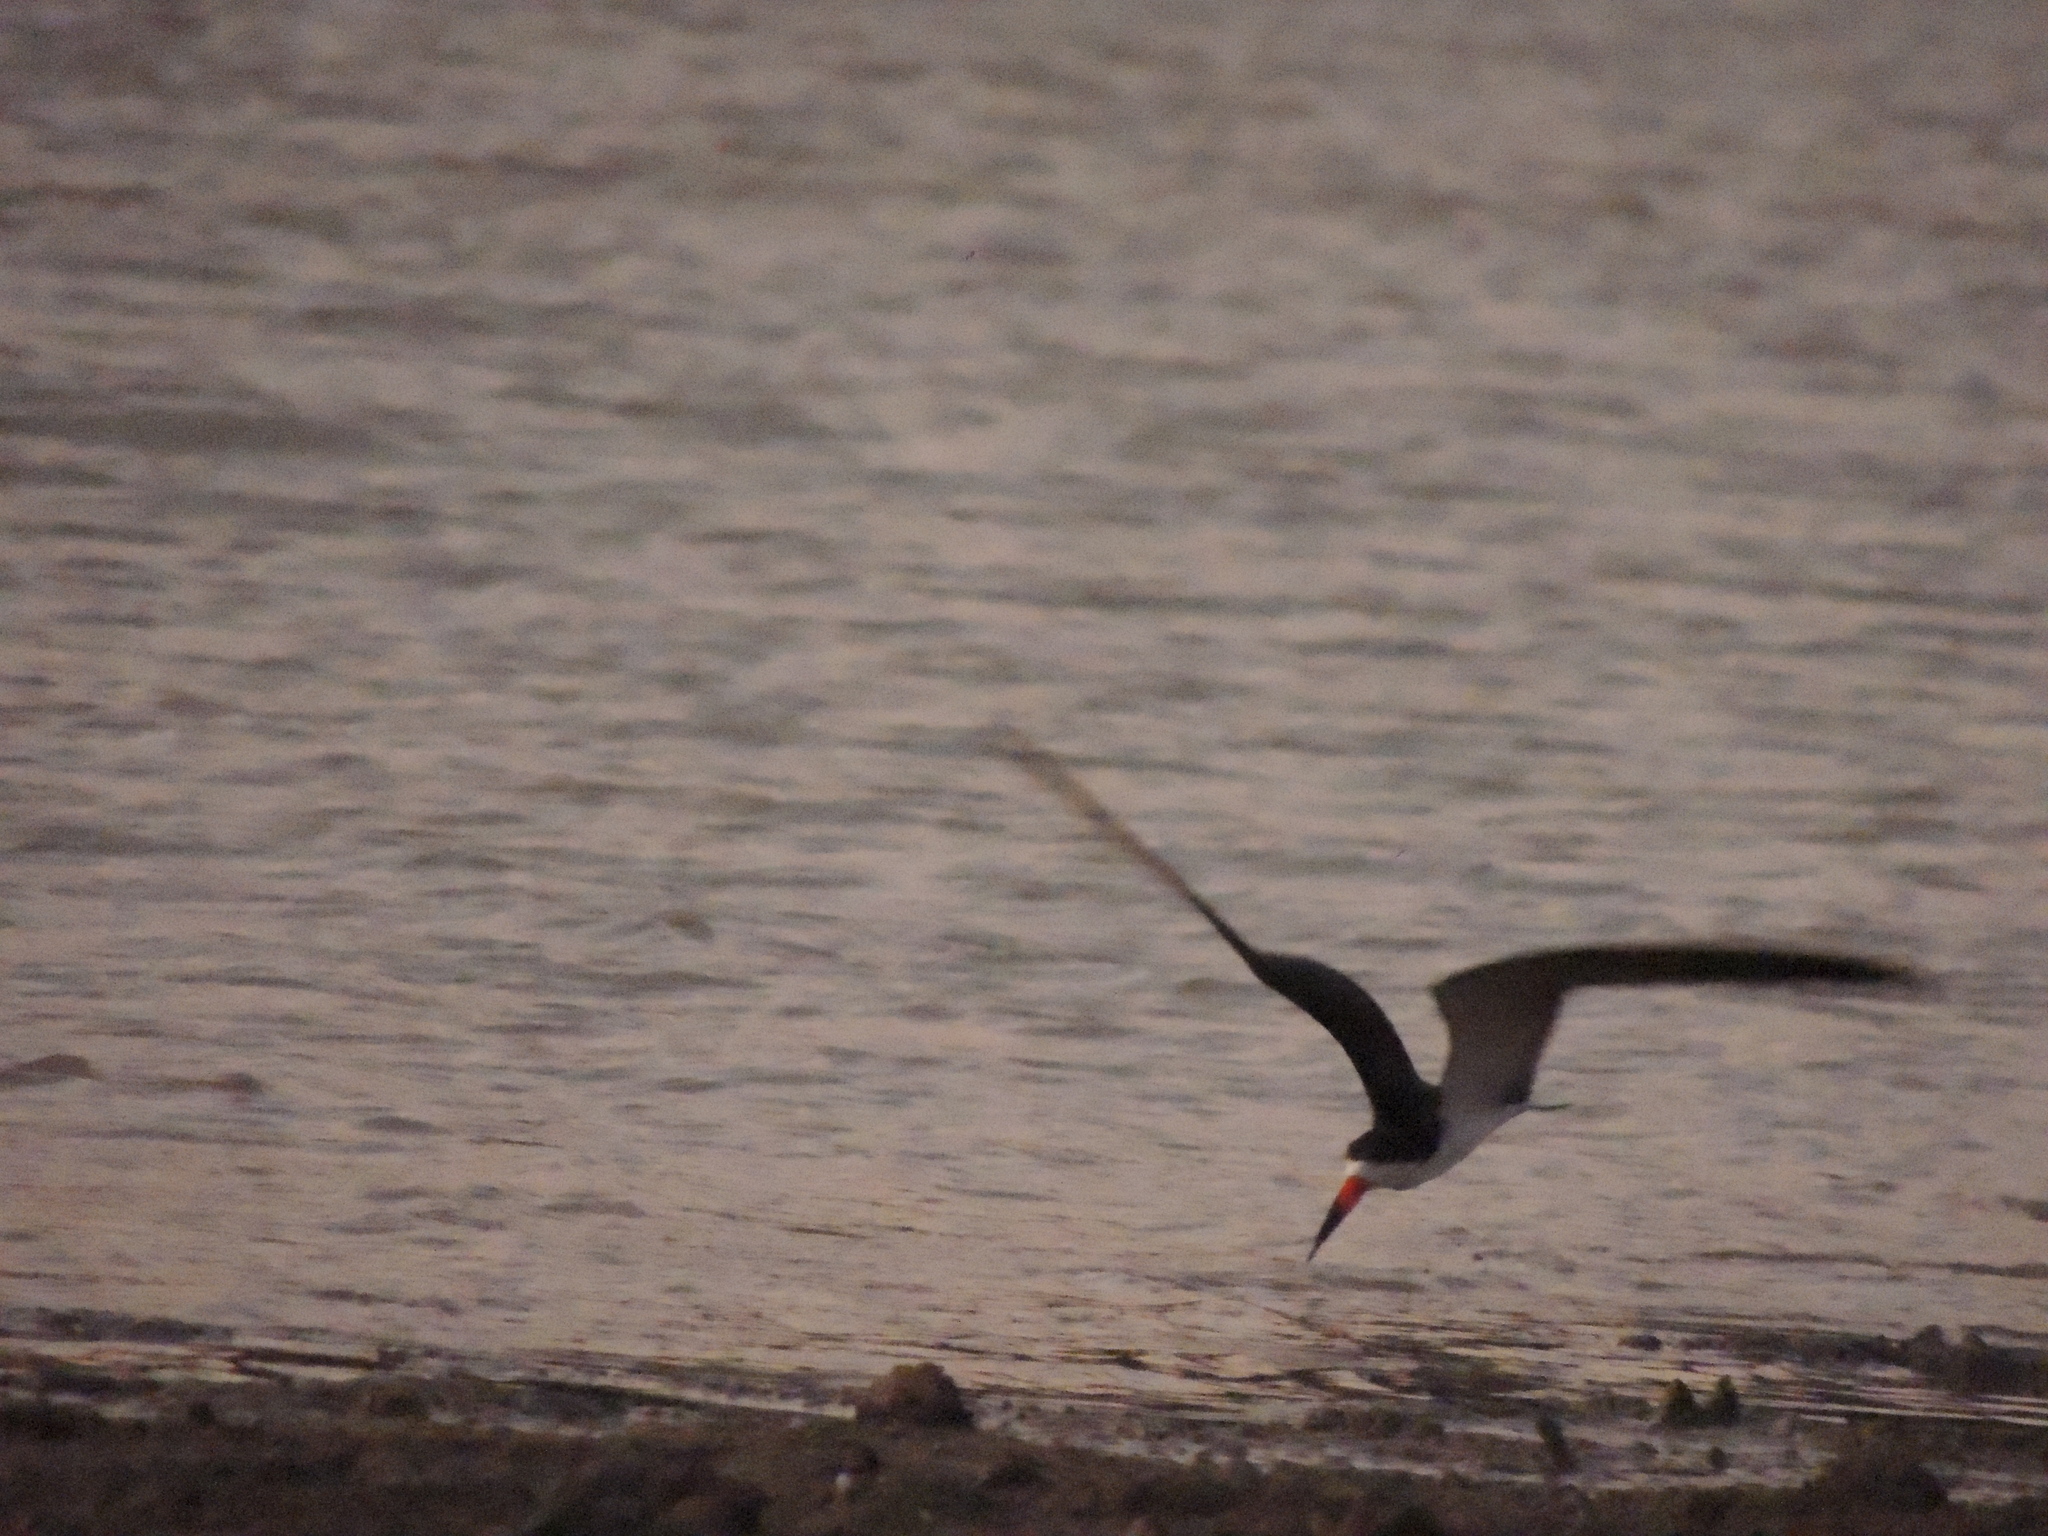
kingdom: Animalia
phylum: Chordata
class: Aves
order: Charadriiformes
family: Laridae
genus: Rynchops
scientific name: Rynchops niger
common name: Black skimmer
